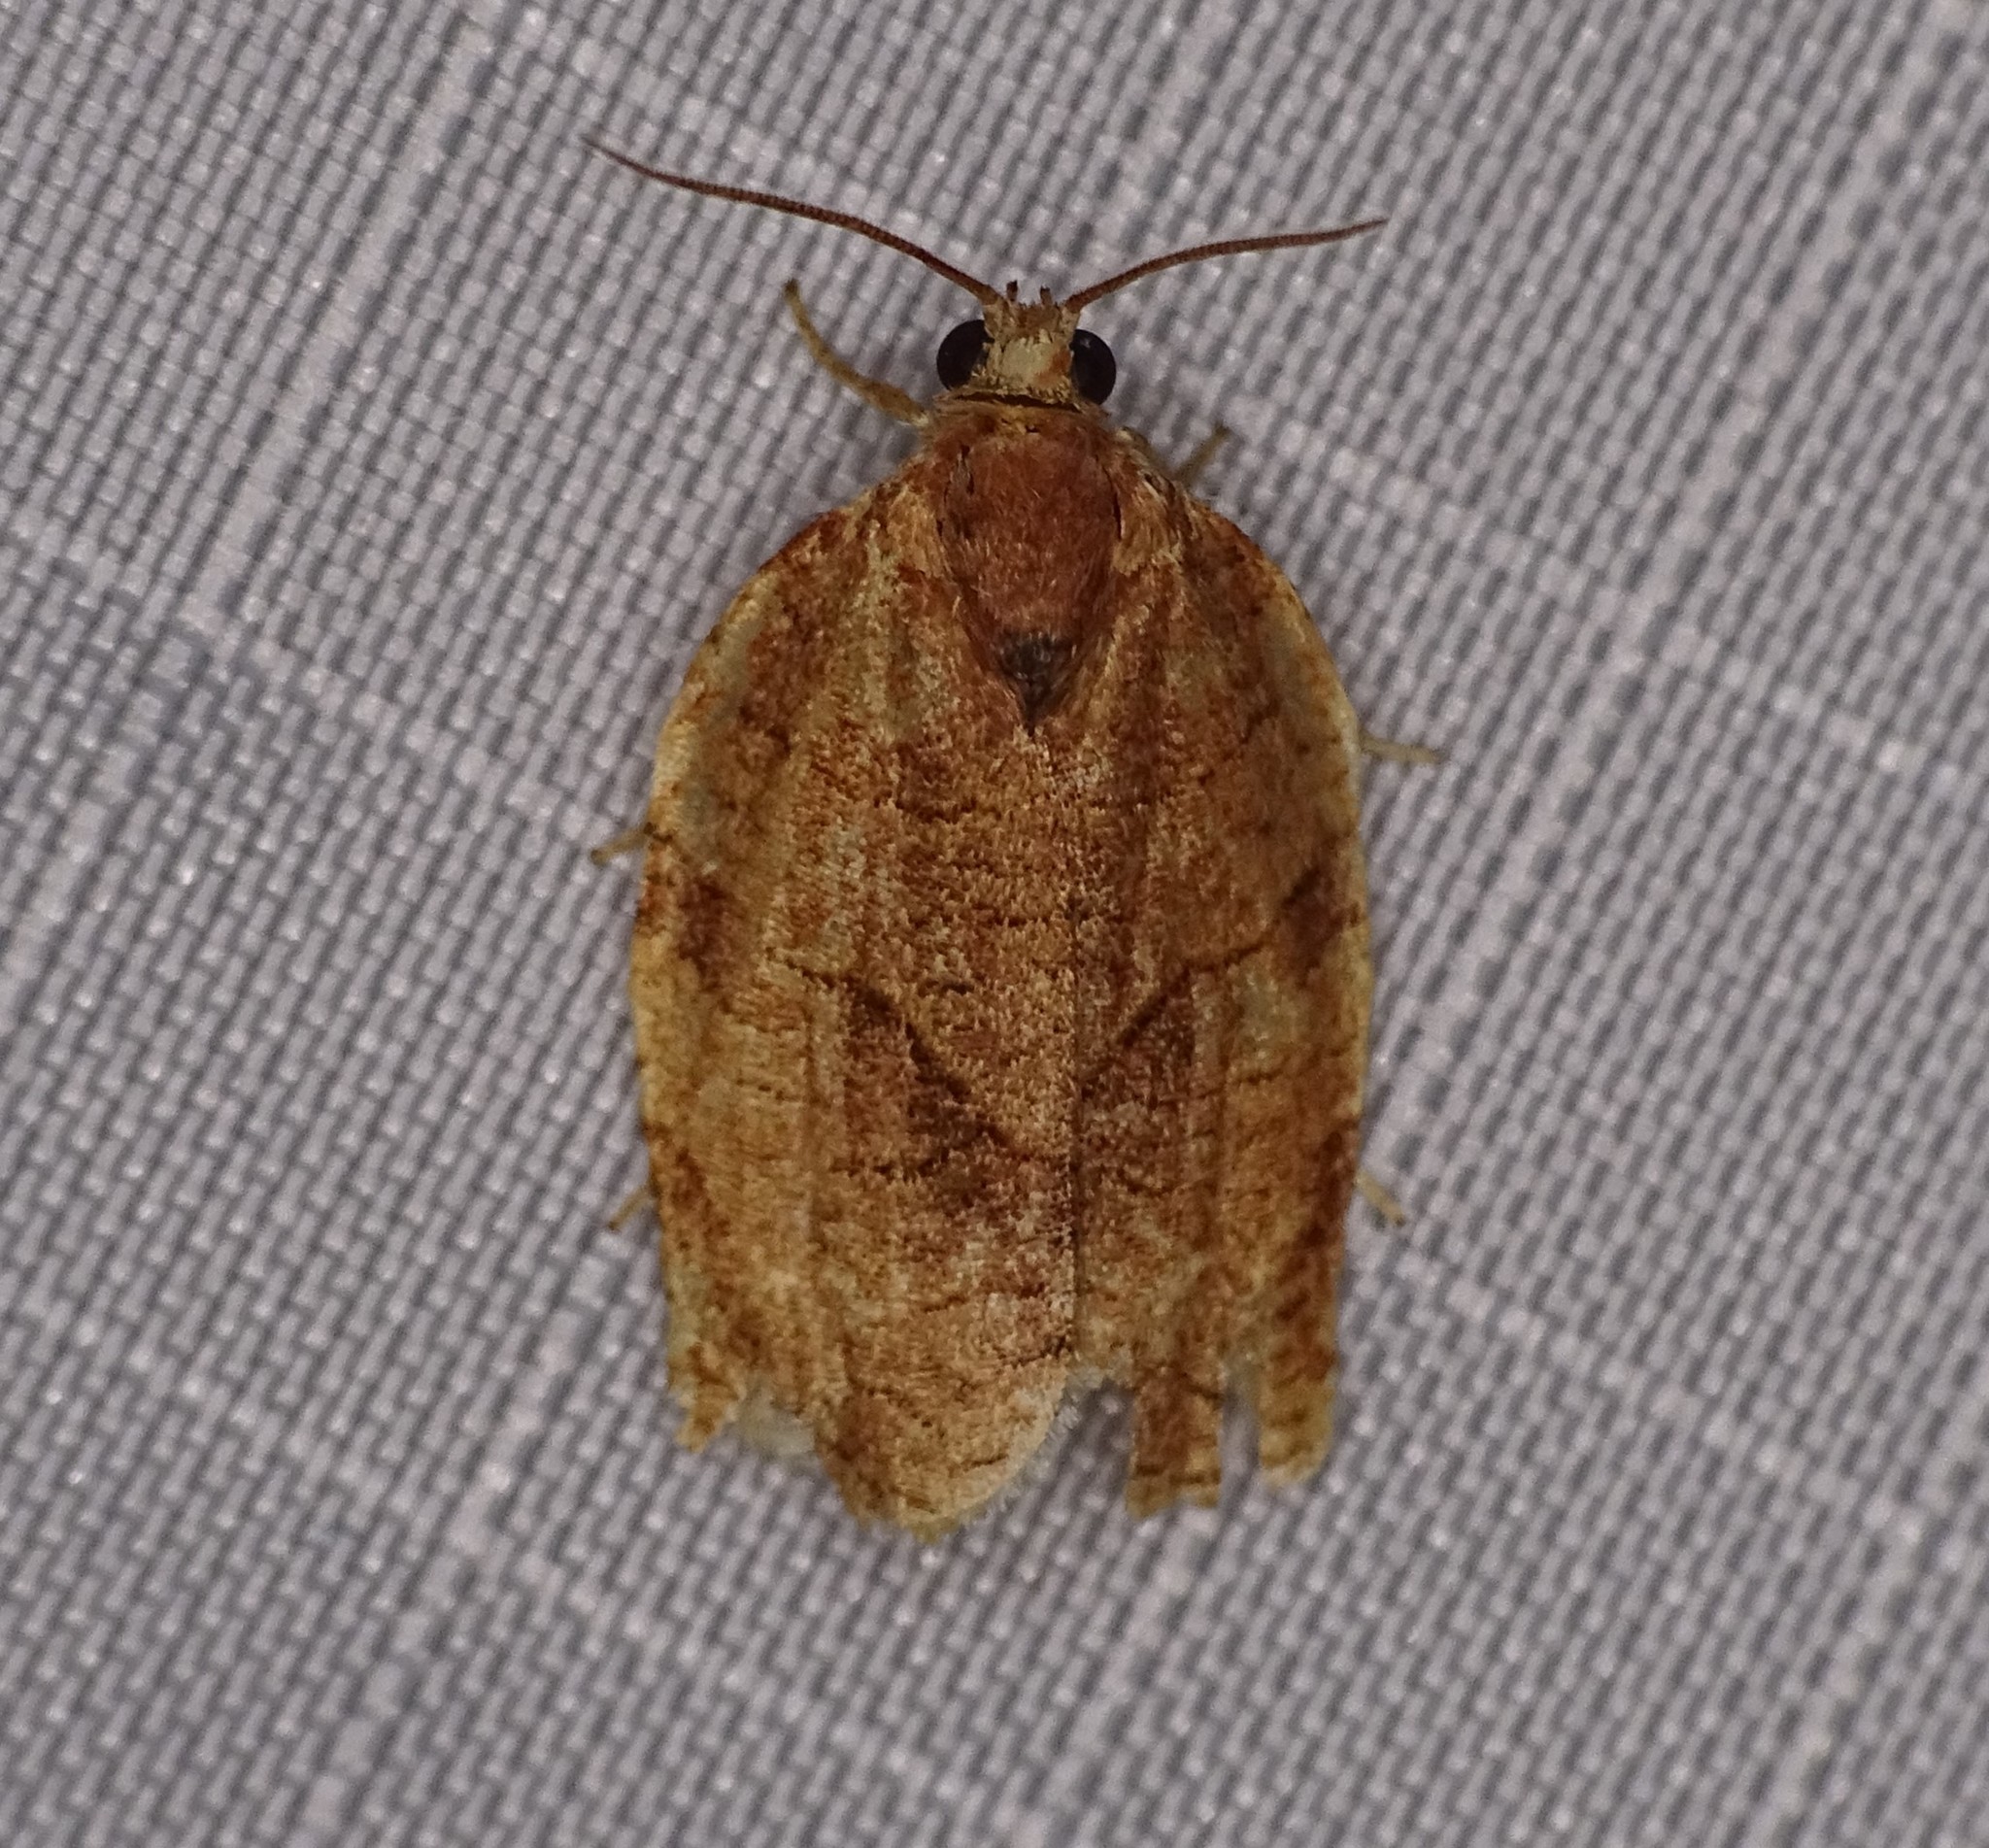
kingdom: Animalia
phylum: Arthropoda
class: Insecta
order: Lepidoptera
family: Tortricidae
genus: Choristoneura
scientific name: Choristoneura rosaceana
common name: Oblique-banded leafroller moth
